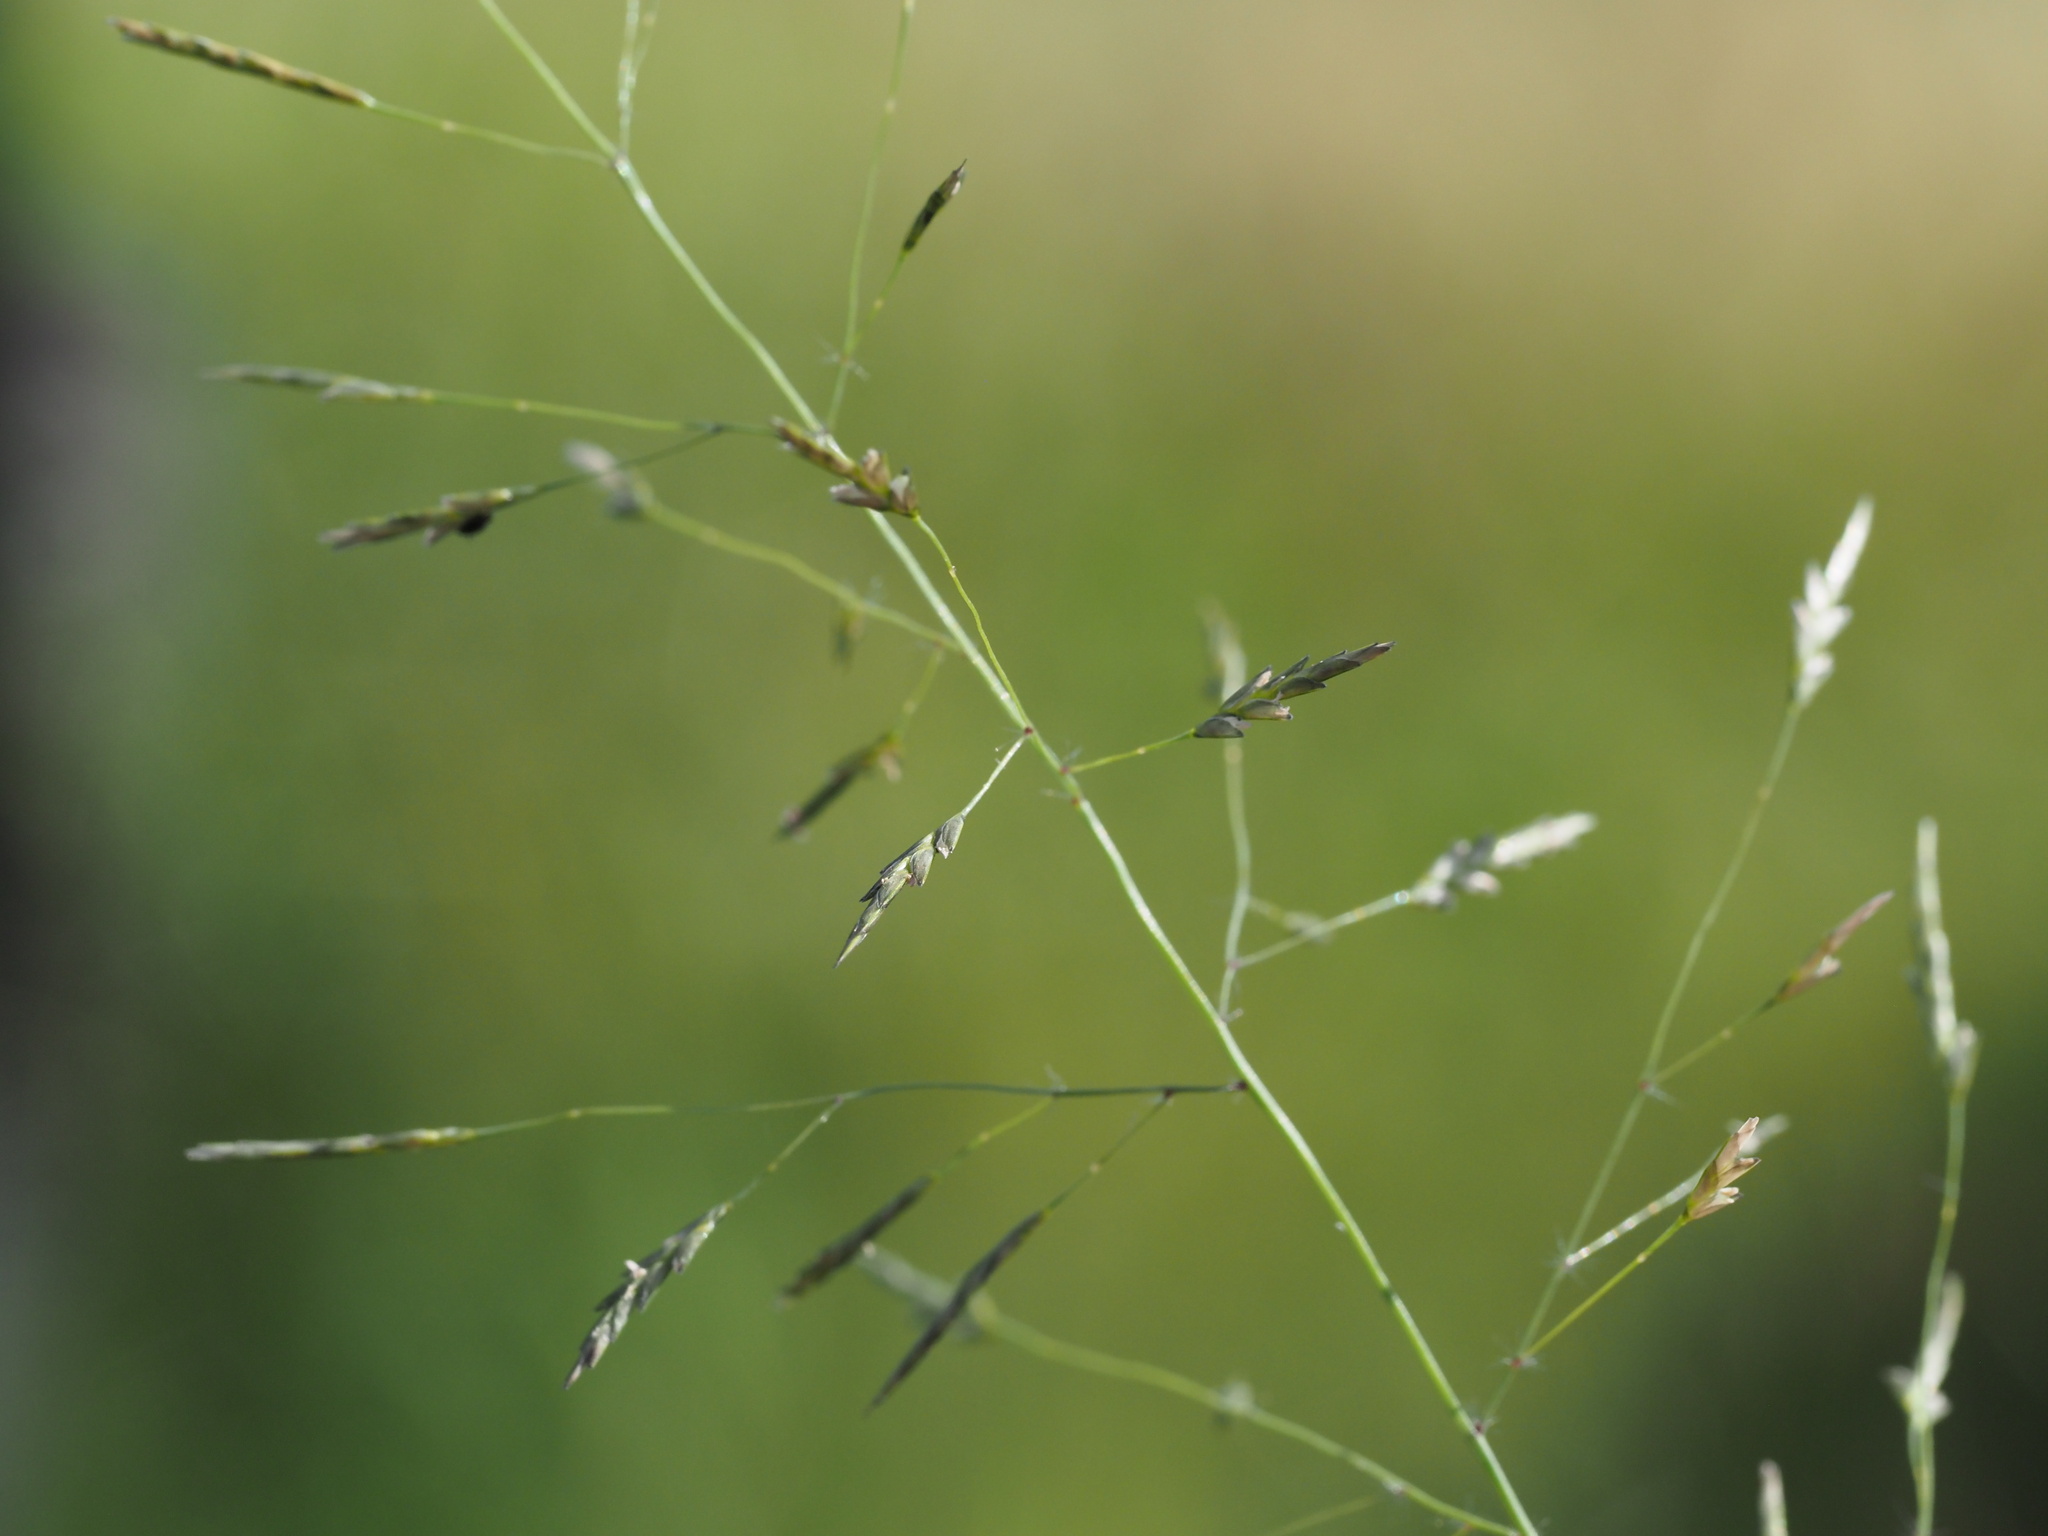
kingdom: Plantae
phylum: Tracheophyta
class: Liliopsida
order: Poales
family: Poaceae
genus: Eragrostis
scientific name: Eragrostis tenuifolia
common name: Elastic grass
